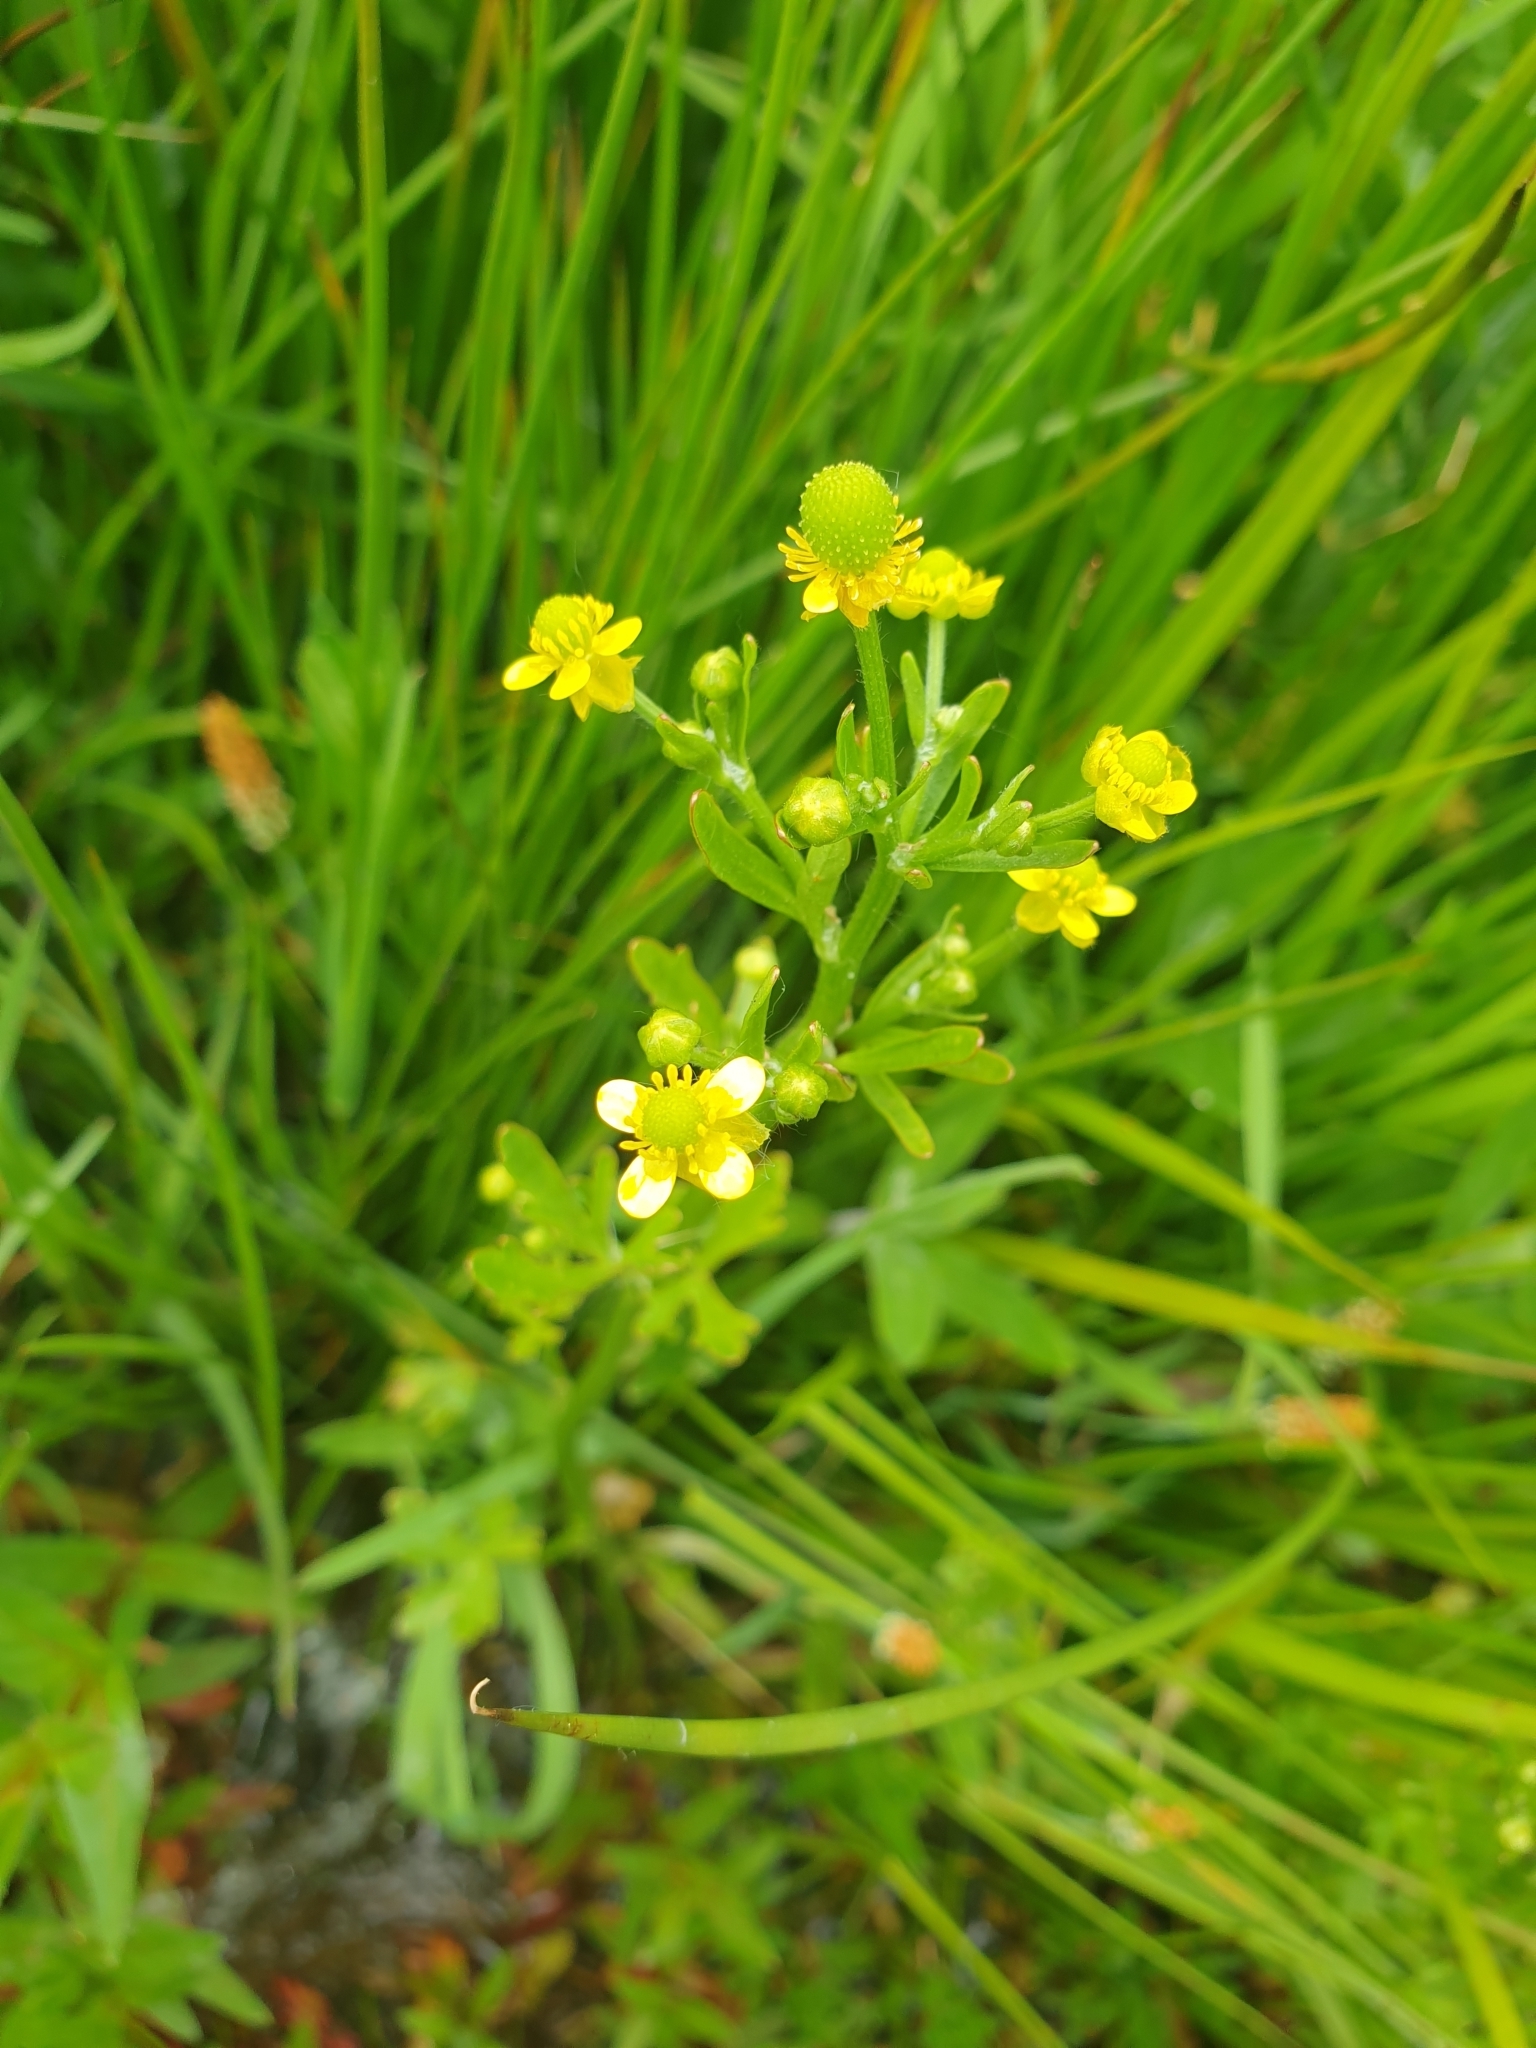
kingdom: Plantae
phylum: Tracheophyta
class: Magnoliopsida
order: Ranunculales
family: Ranunculaceae
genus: Ranunculus
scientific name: Ranunculus sceleratus
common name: Celery-leaved buttercup
